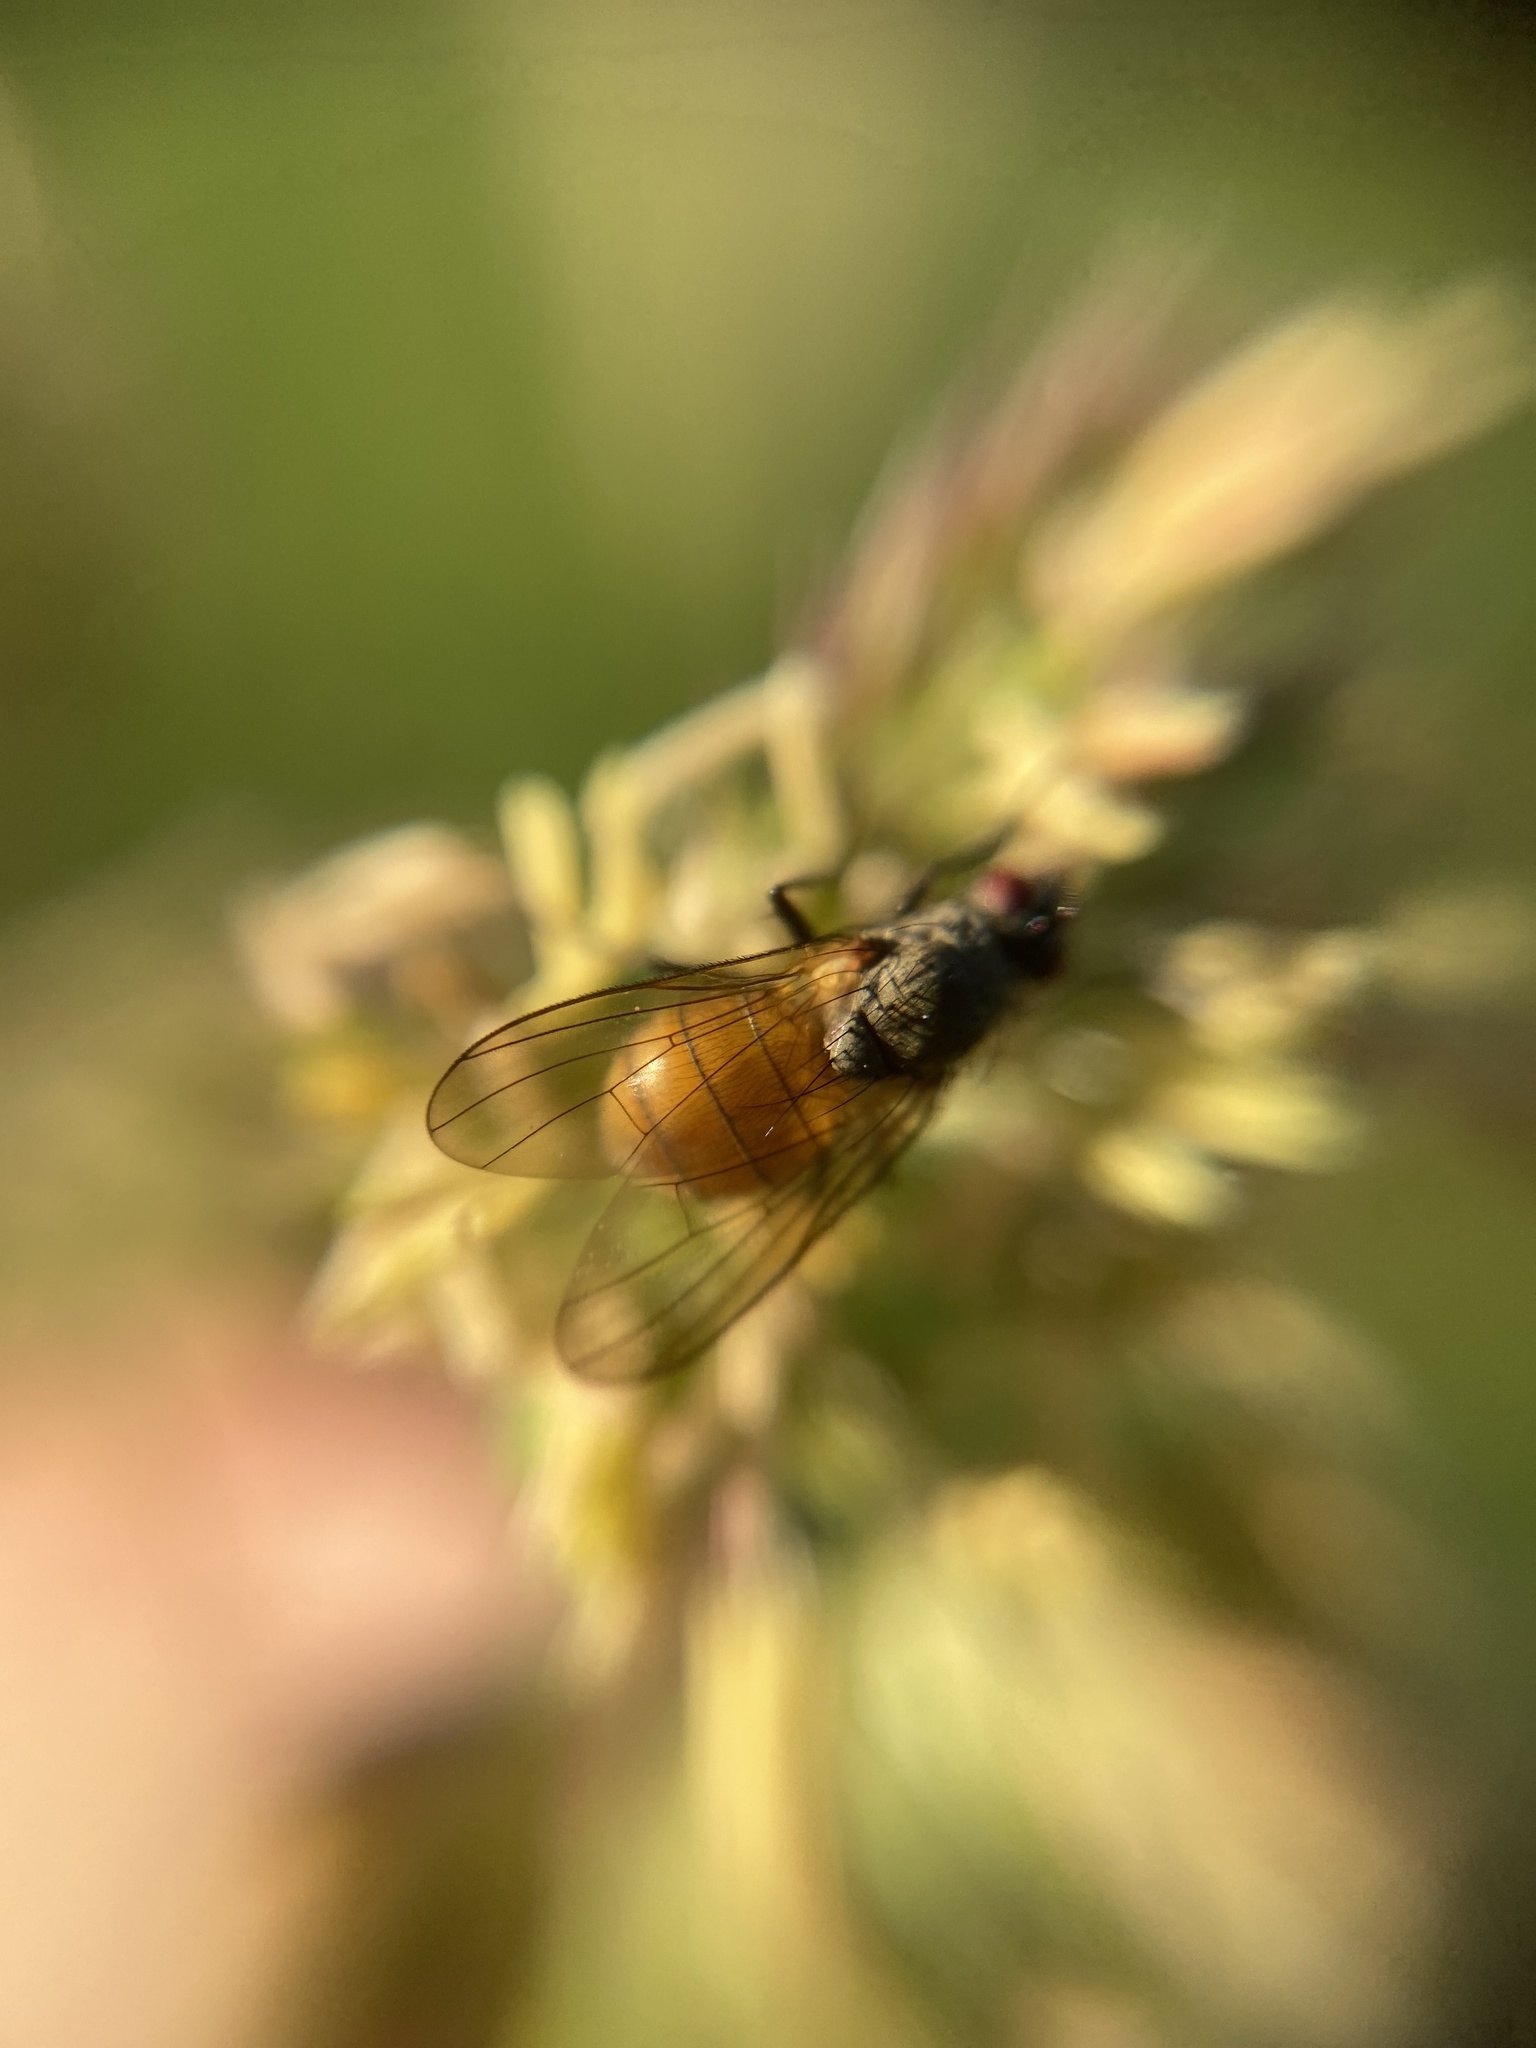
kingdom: Animalia
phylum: Arthropoda
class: Insecta
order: Diptera
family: Muscidae
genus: Thricops
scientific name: Thricops semicinereus
